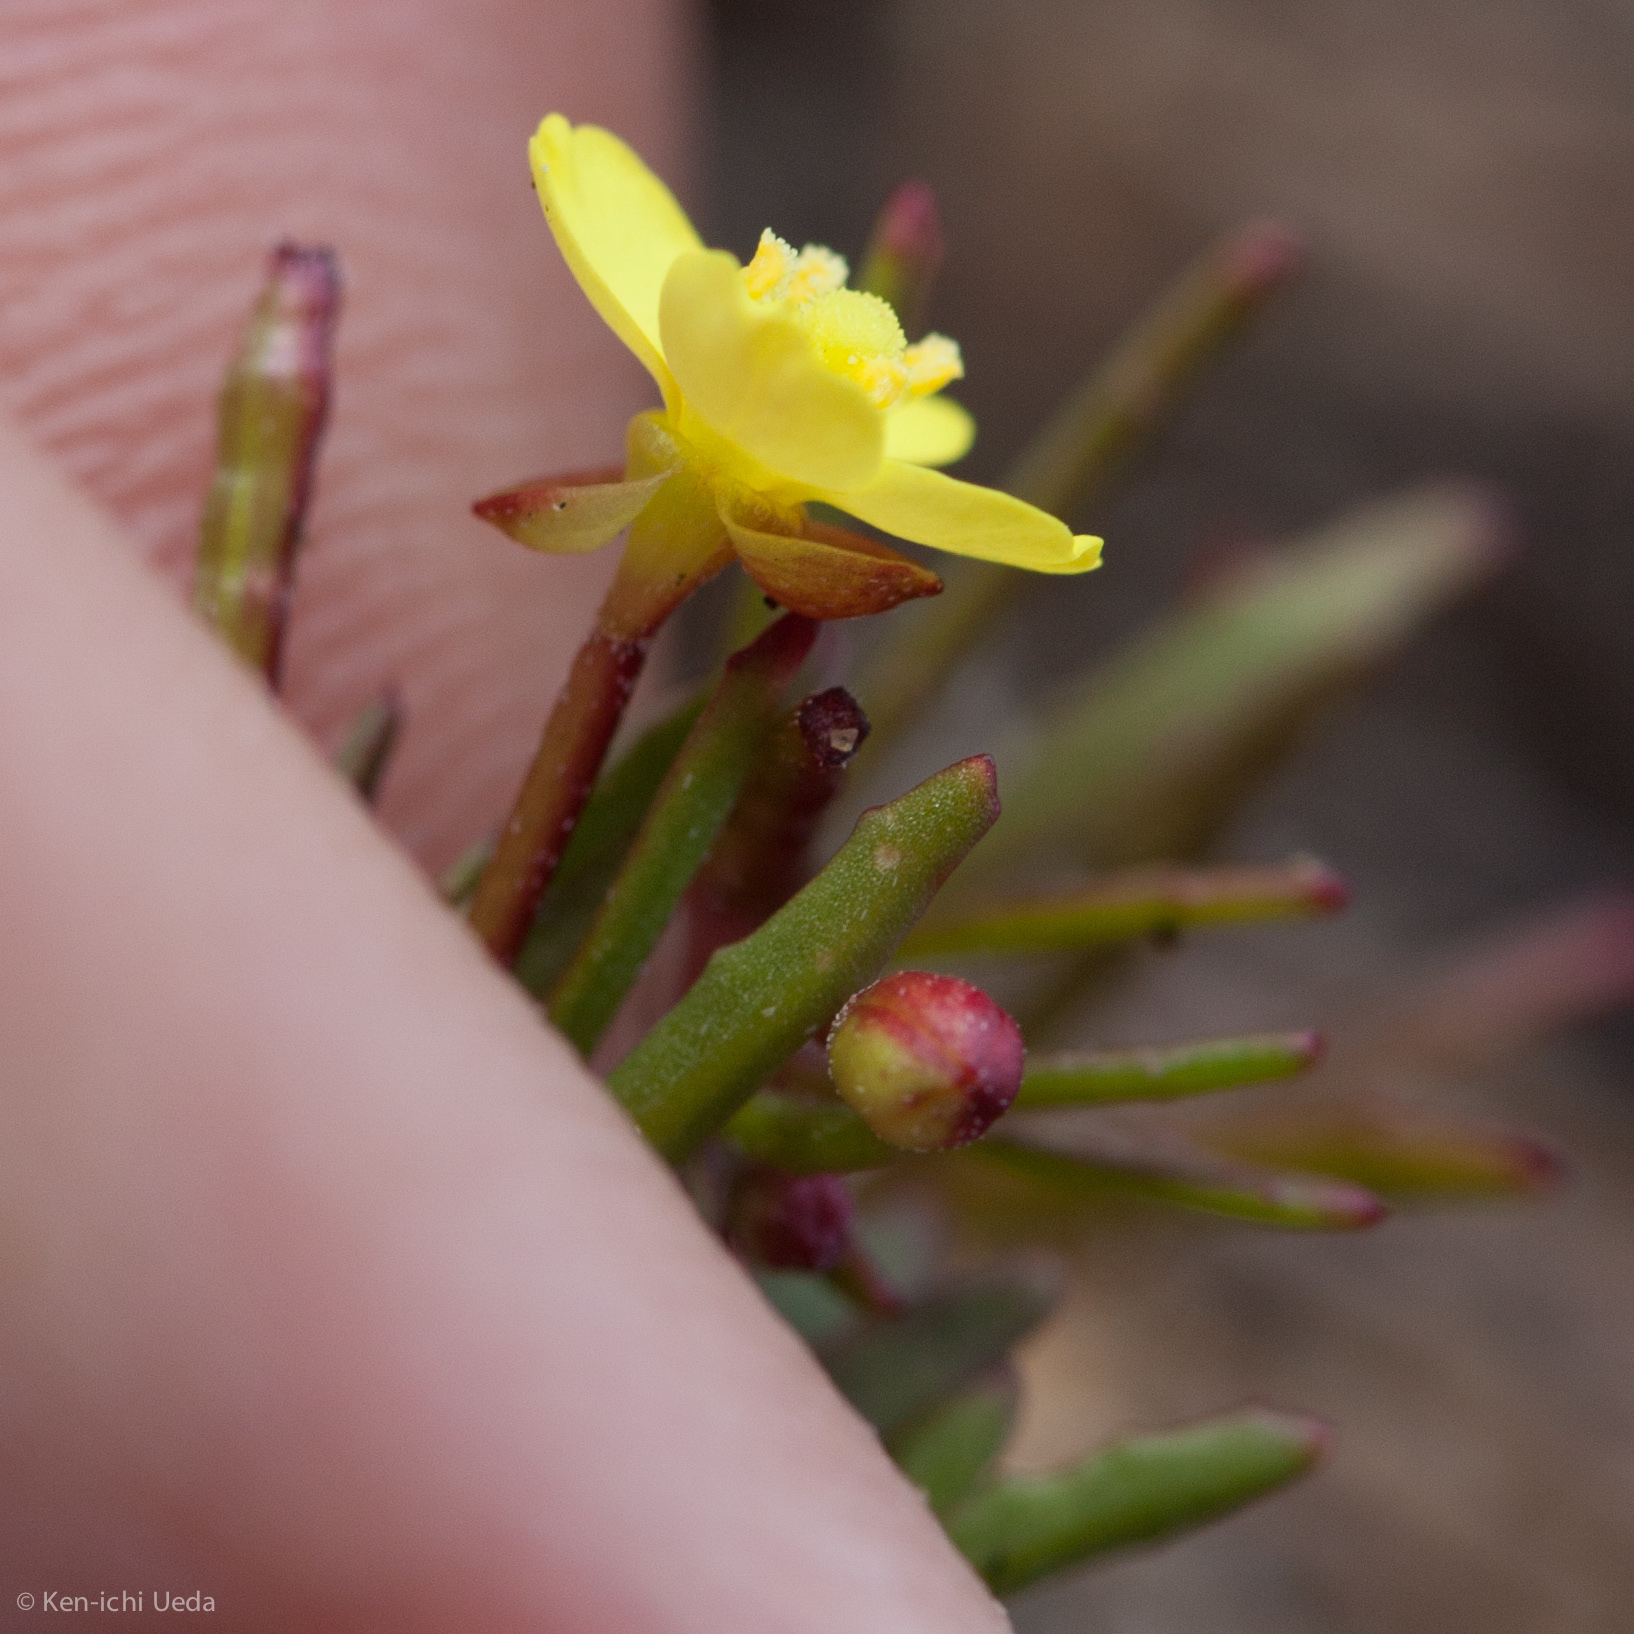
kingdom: Plantae
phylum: Tracheophyta
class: Magnoliopsida
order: Myrtales
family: Onagraceae
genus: Camissonia
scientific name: Camissonia strigulosa
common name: Contorted-primrose
